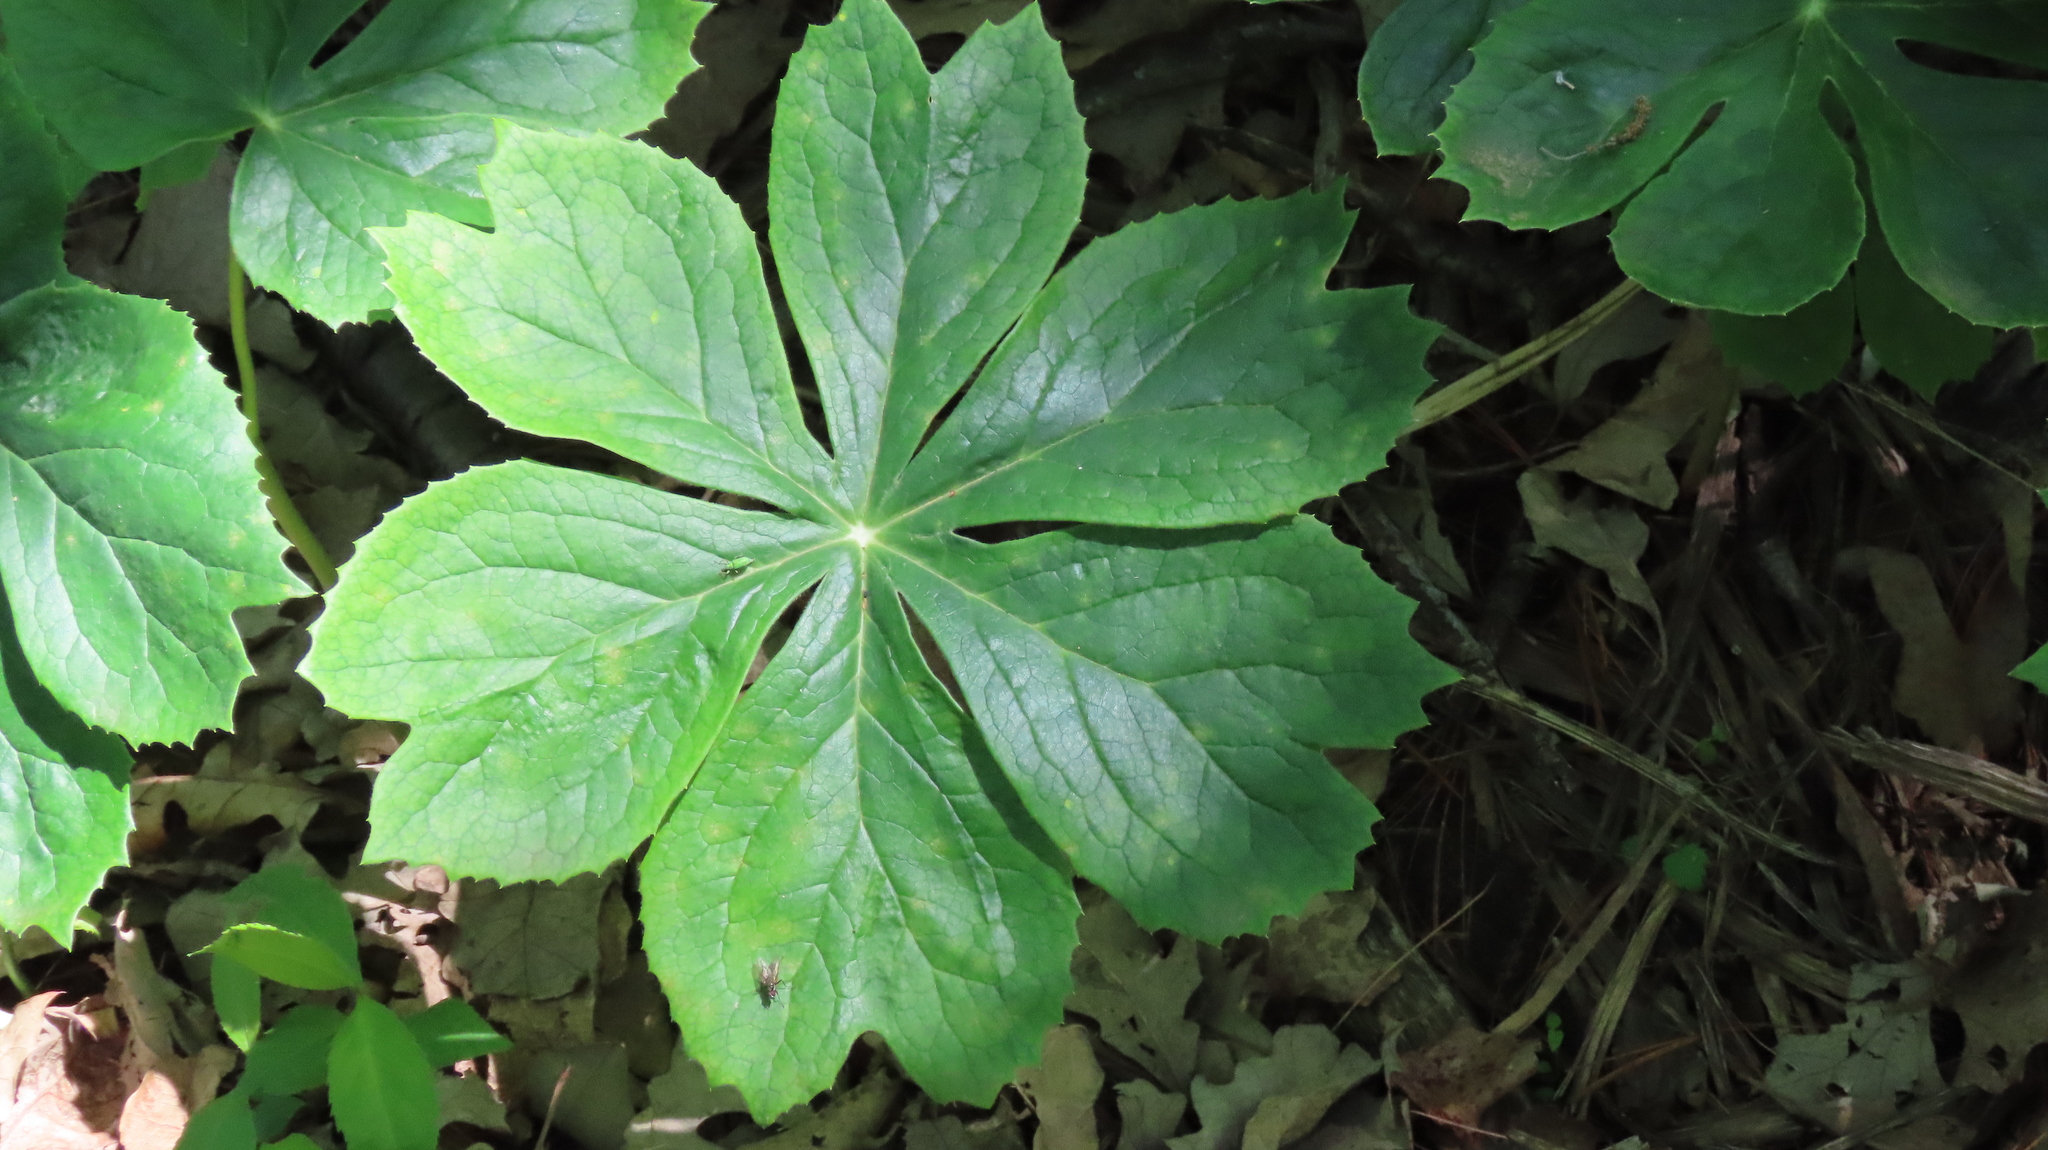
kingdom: Plantae
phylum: Tracheophyta
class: Magnoliopsida
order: Ranunculales
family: Berberidaceae
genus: Podophyllum
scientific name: Podophyllum peltatum
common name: Wild mandrake
